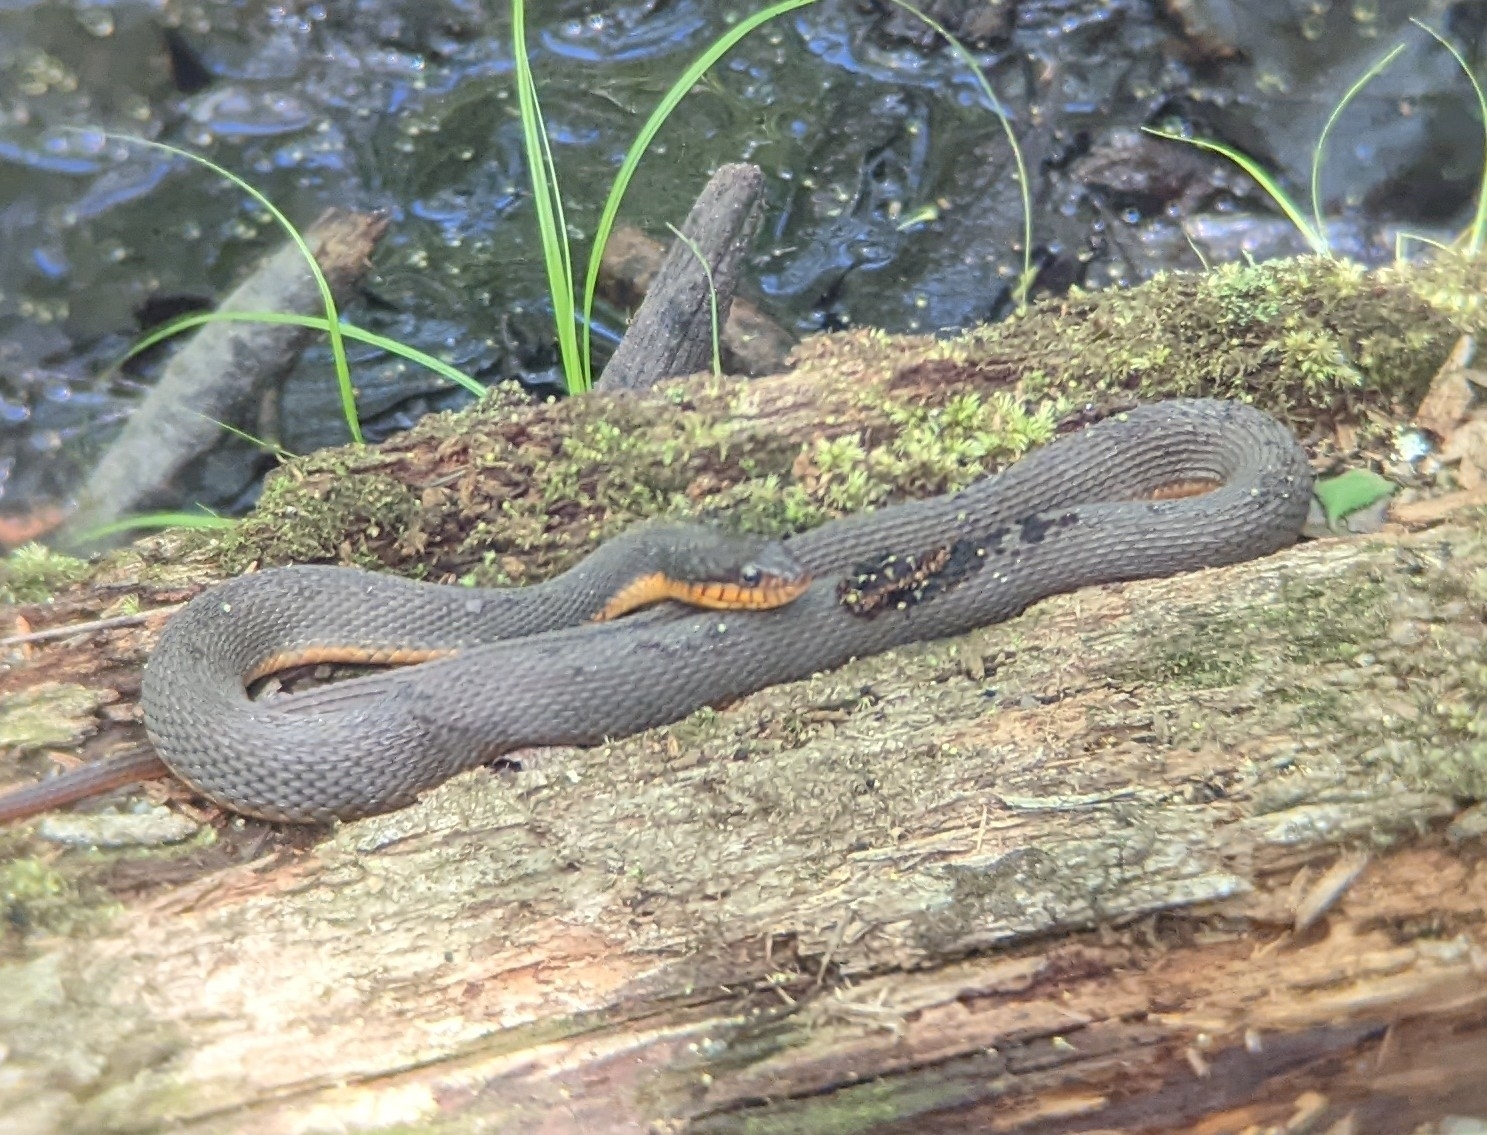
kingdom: Animalia
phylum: Chordata
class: Squamata
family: Colubridae
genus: Nerodia
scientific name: Nerodia erythrogaster
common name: Plainbelly water snake
